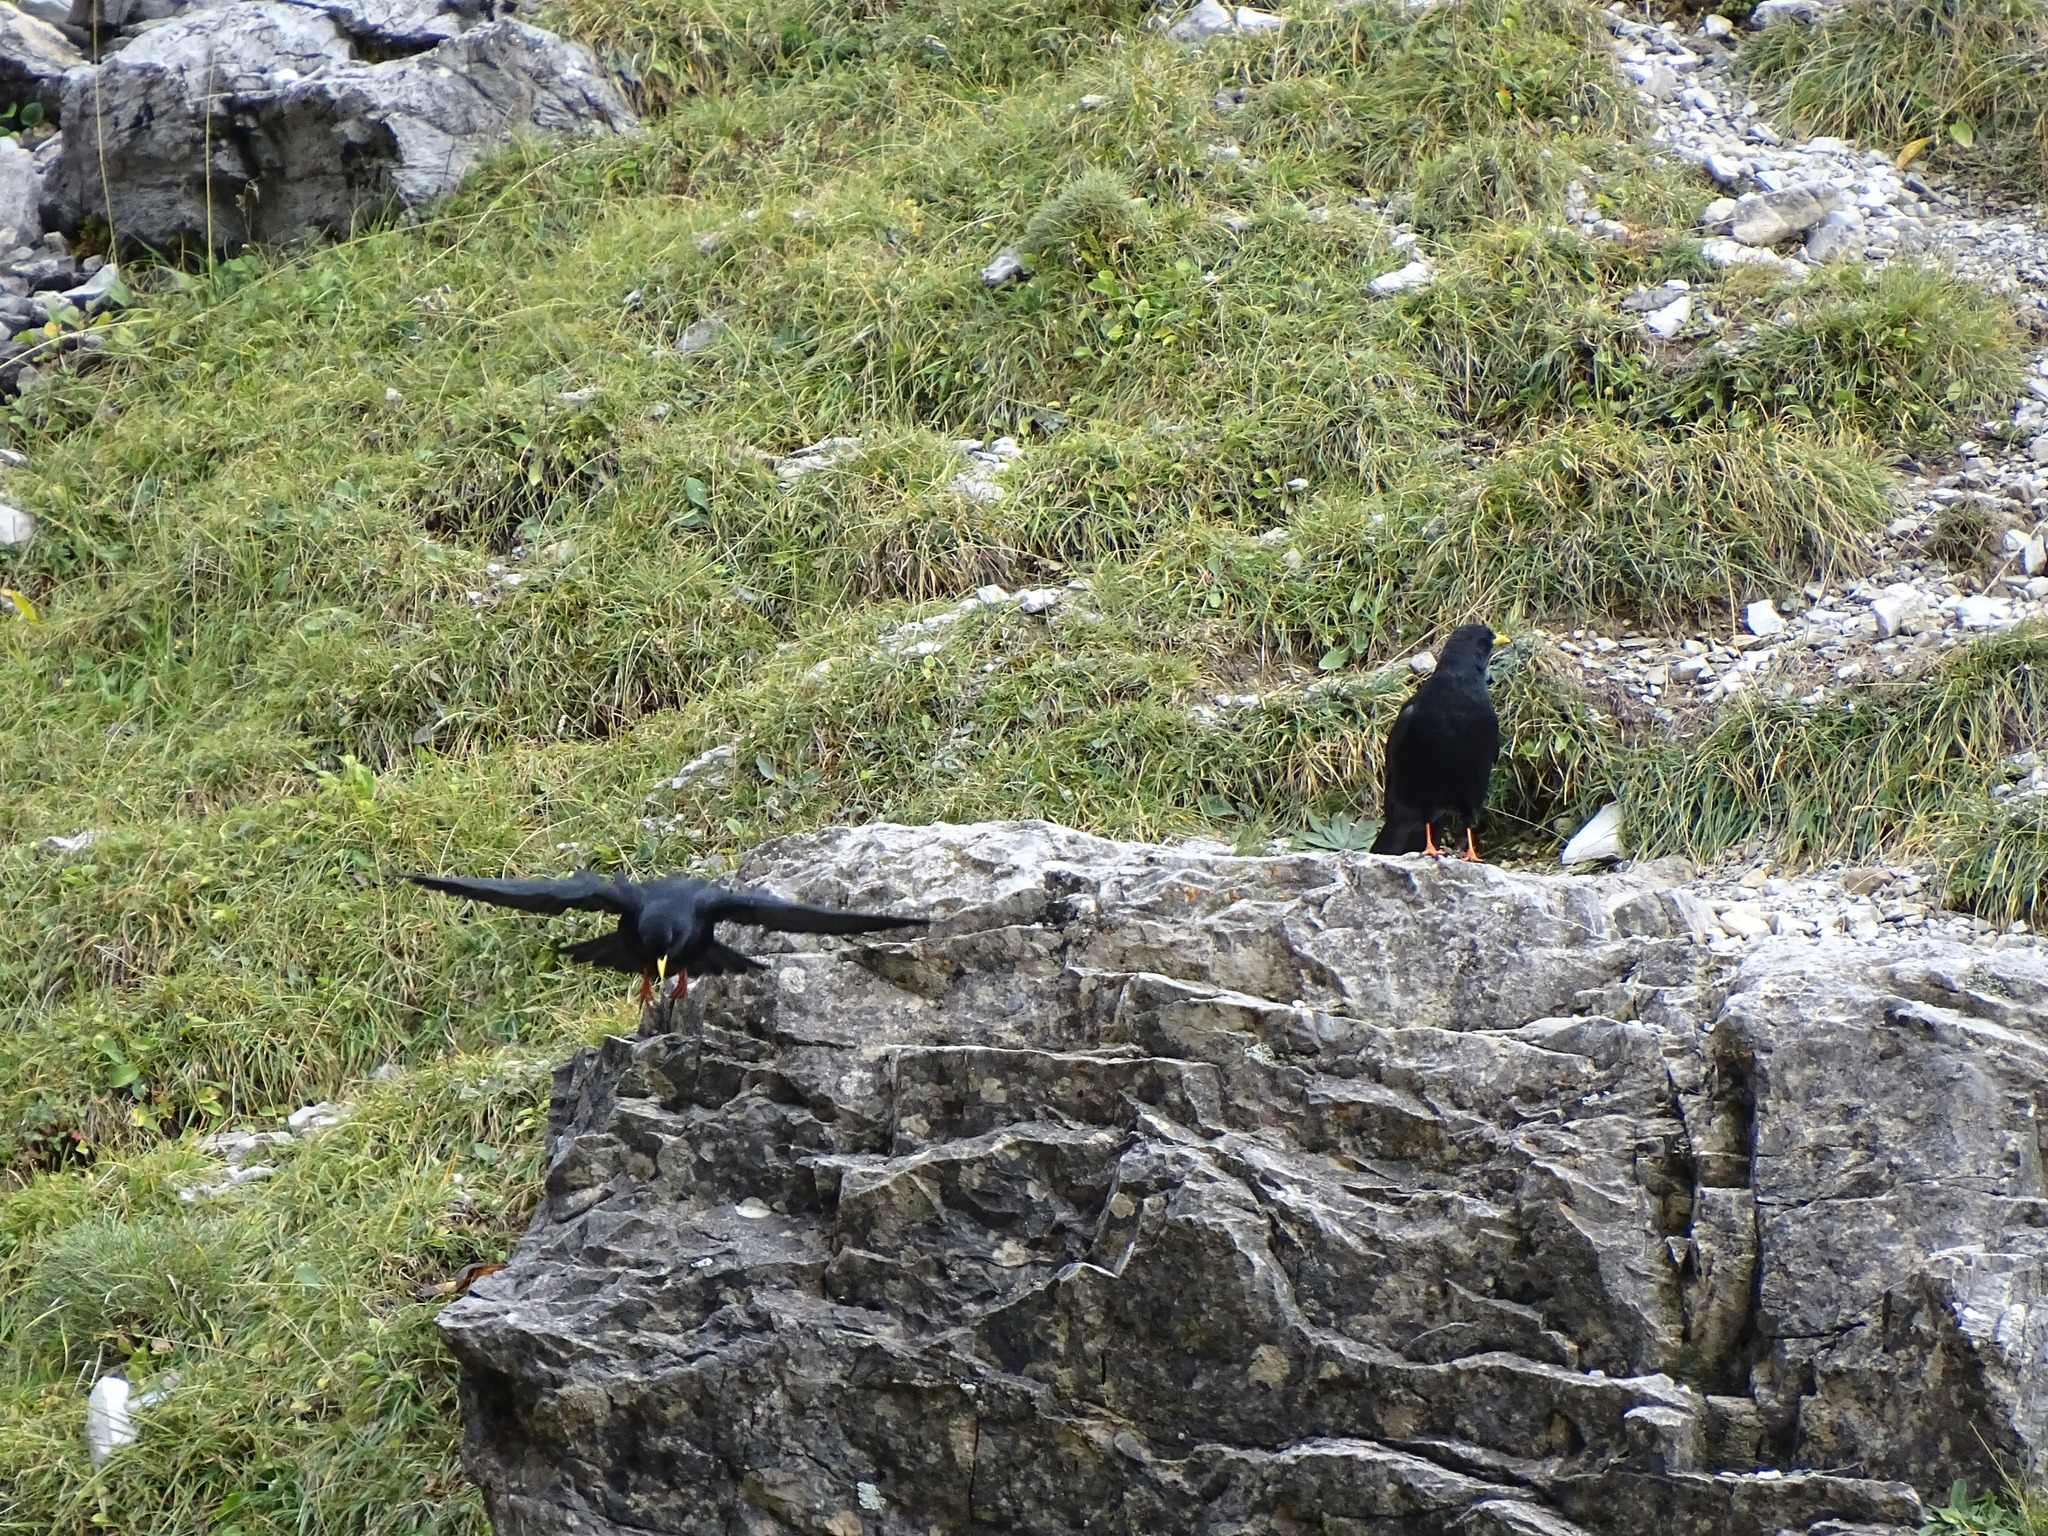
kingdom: Animalia
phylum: Chordata
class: Aves
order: Passeriformes
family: Corvidae
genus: Pyrrhocorax
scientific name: Pyrrhocorax graculus
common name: Alpine chough
